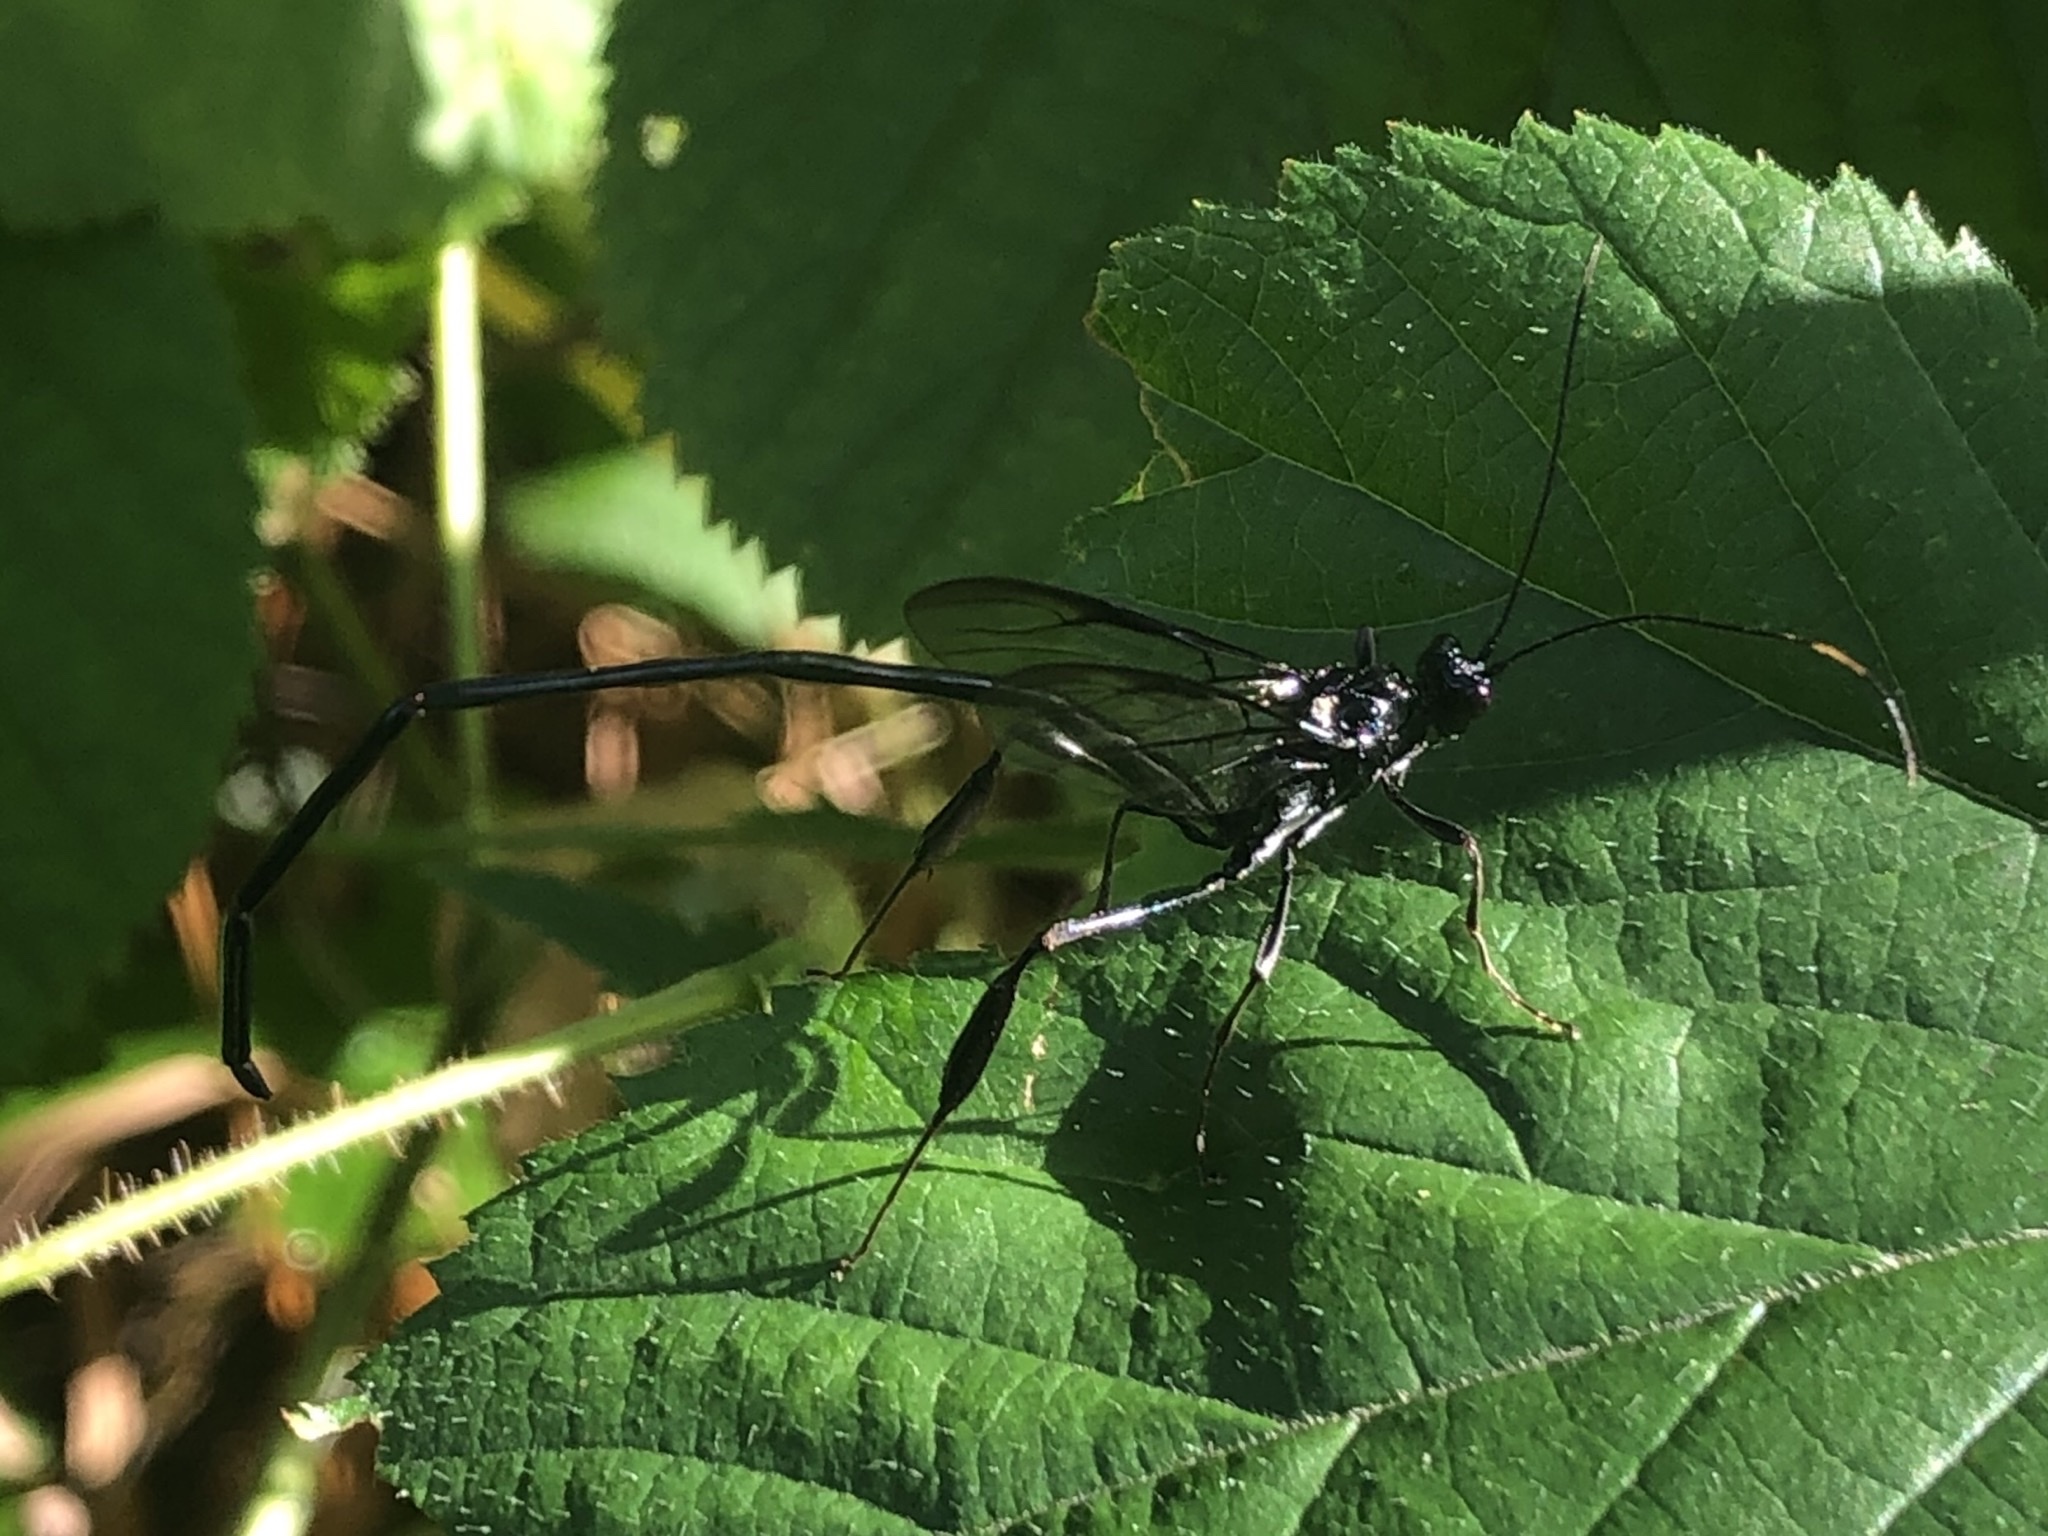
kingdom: Animalia
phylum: Arthropoda
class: Insecta
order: Hymenoptera
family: Pelecinidae
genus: Pelecinus
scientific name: Pelecinus polyturator
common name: American pelecinid wasp
